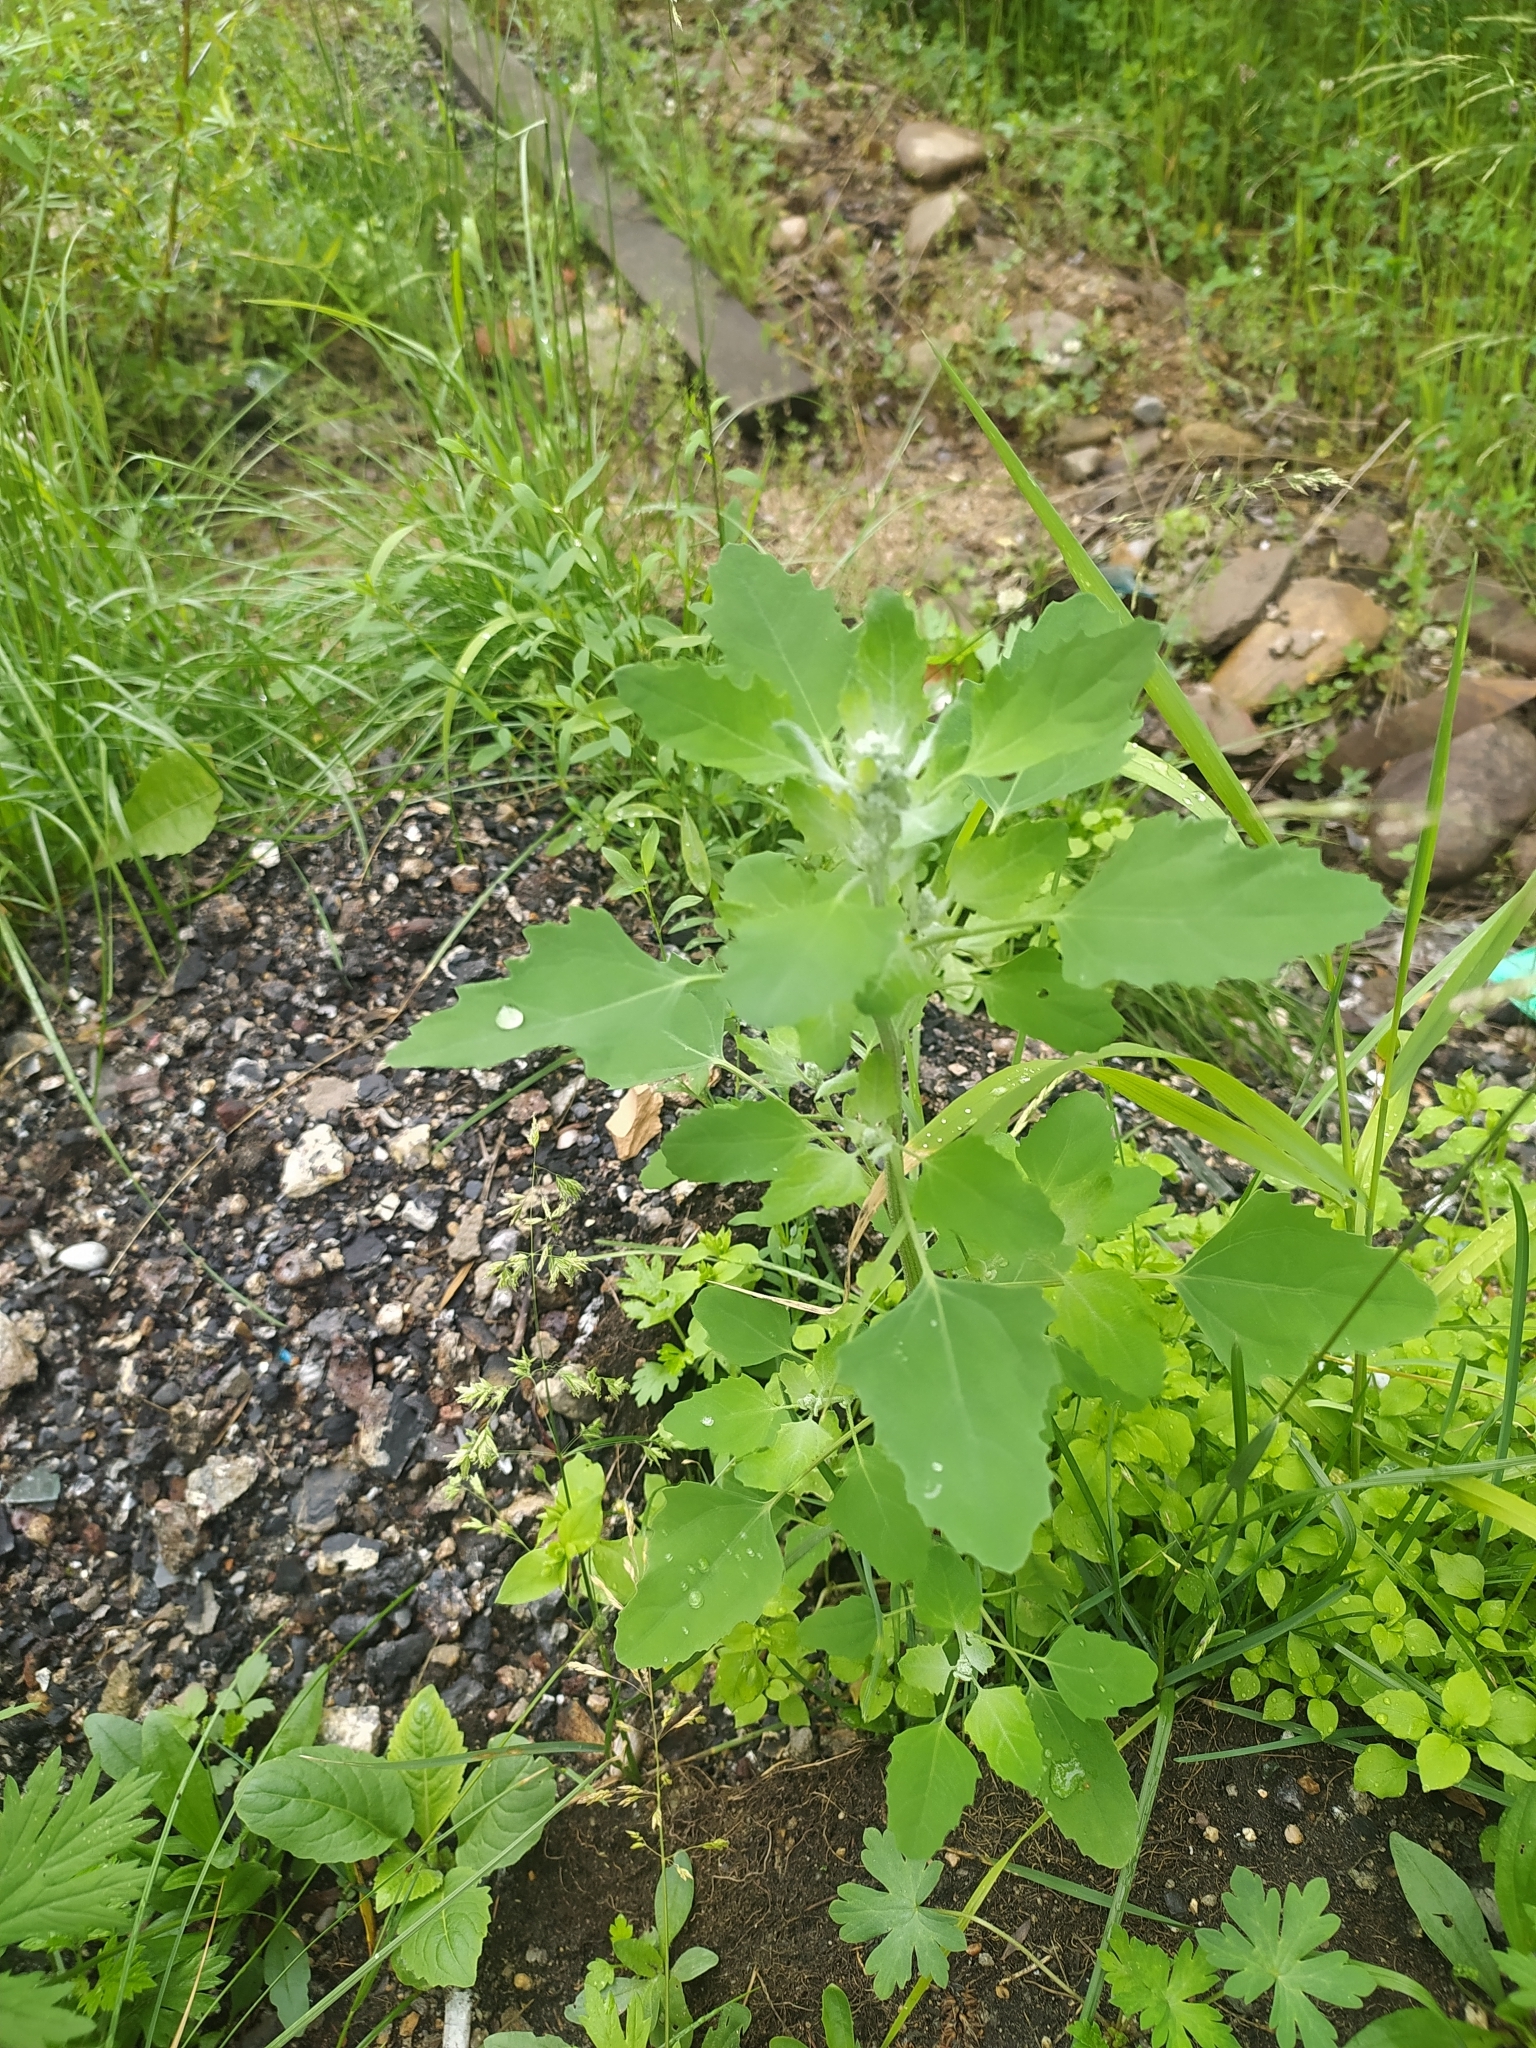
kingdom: Plantae
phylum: Tracheophyta
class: Magnoliopsida
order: Caryophyllales
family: Amaranthaceae
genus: Chenopodium
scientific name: Chenopodium album
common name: Fat-hen
